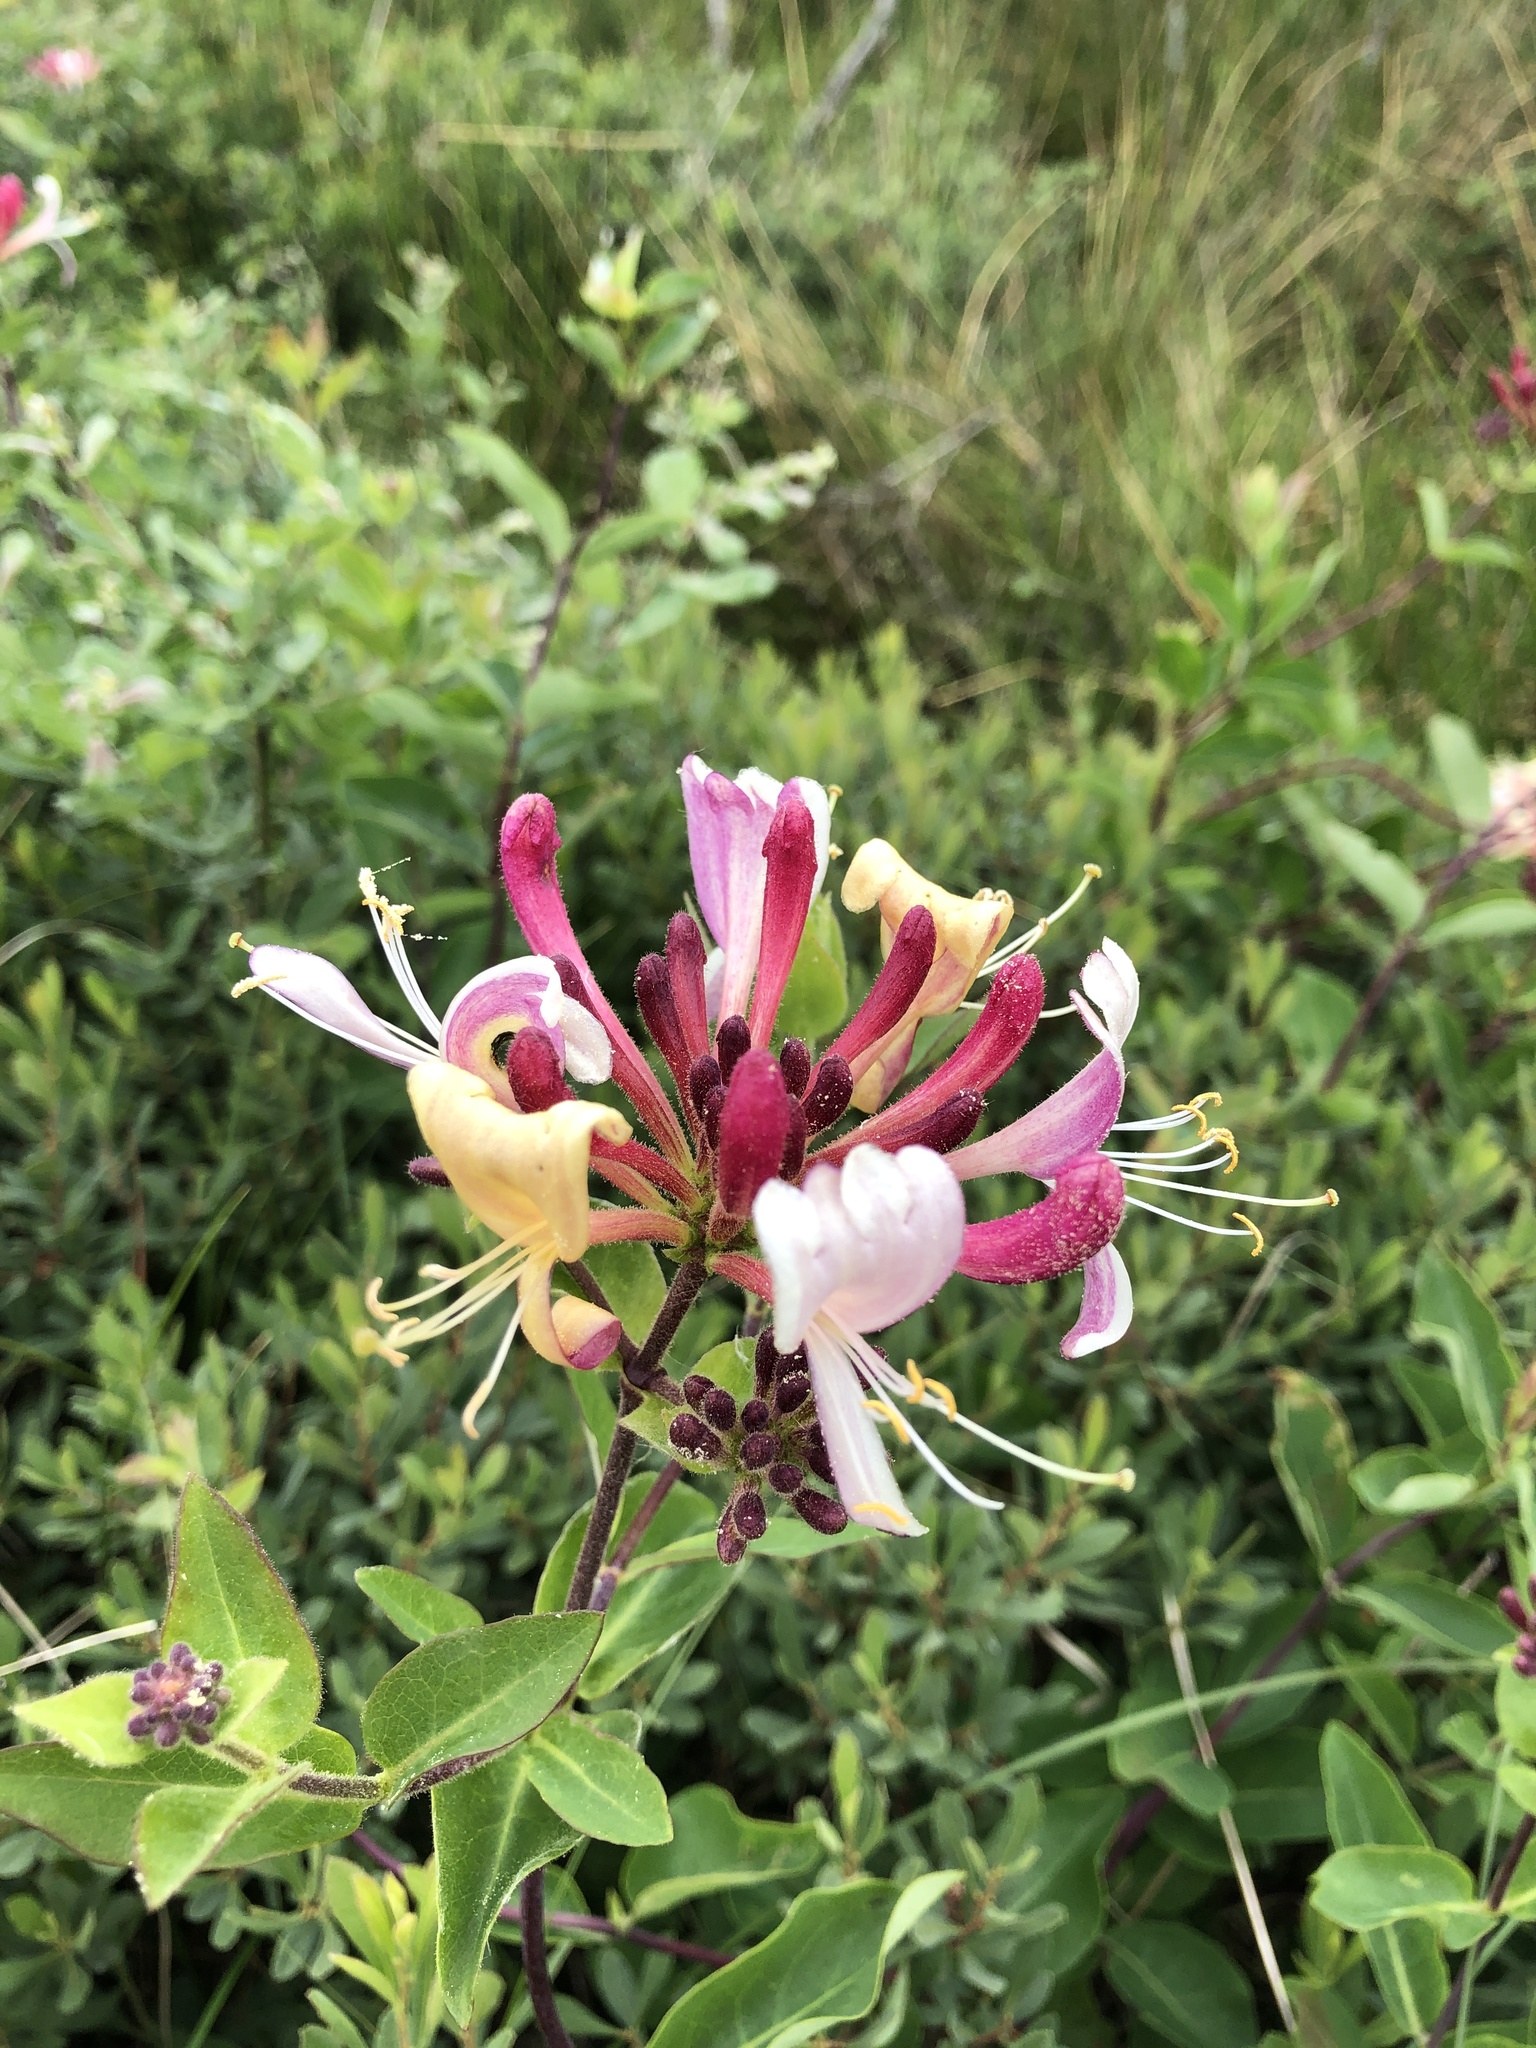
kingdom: Plantae
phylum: Tracheophyta
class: Magnoliopsida
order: Dipsacales
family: Caprifoliaceae
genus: Lonicera
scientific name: Lonicera periclymenum
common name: European honeysuckle
